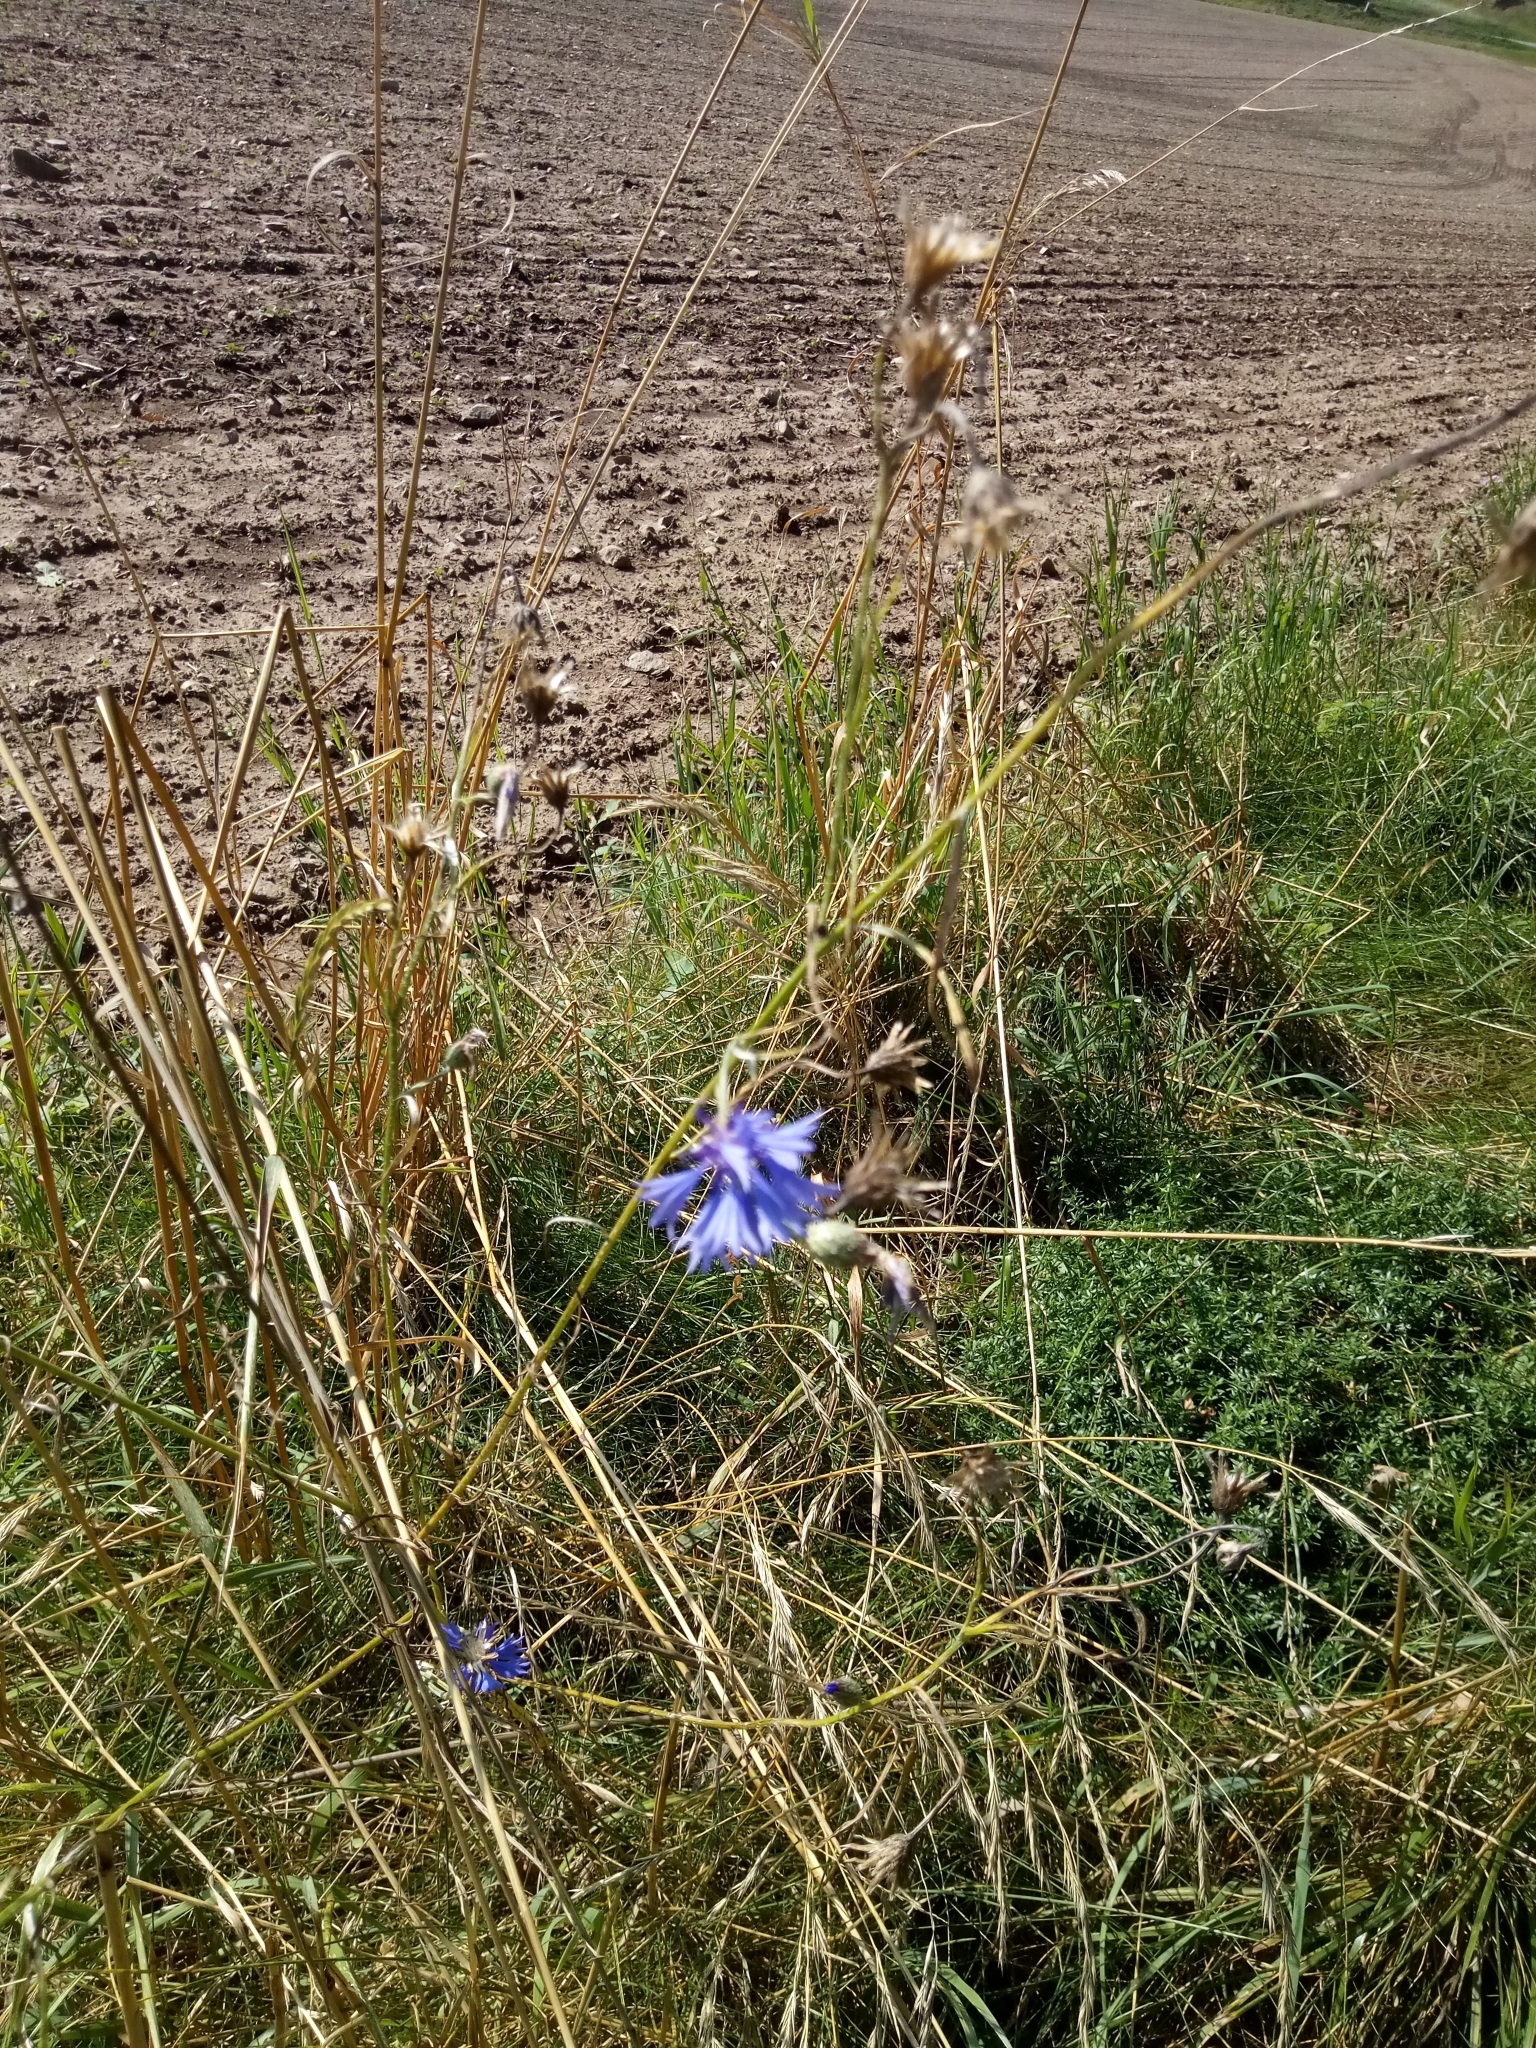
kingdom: Plantae
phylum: Tracheophyta
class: Magnoliopsida
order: Asterales
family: Asteraceae
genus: Centaurea
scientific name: Centaurea cyanus
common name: Cornflower
